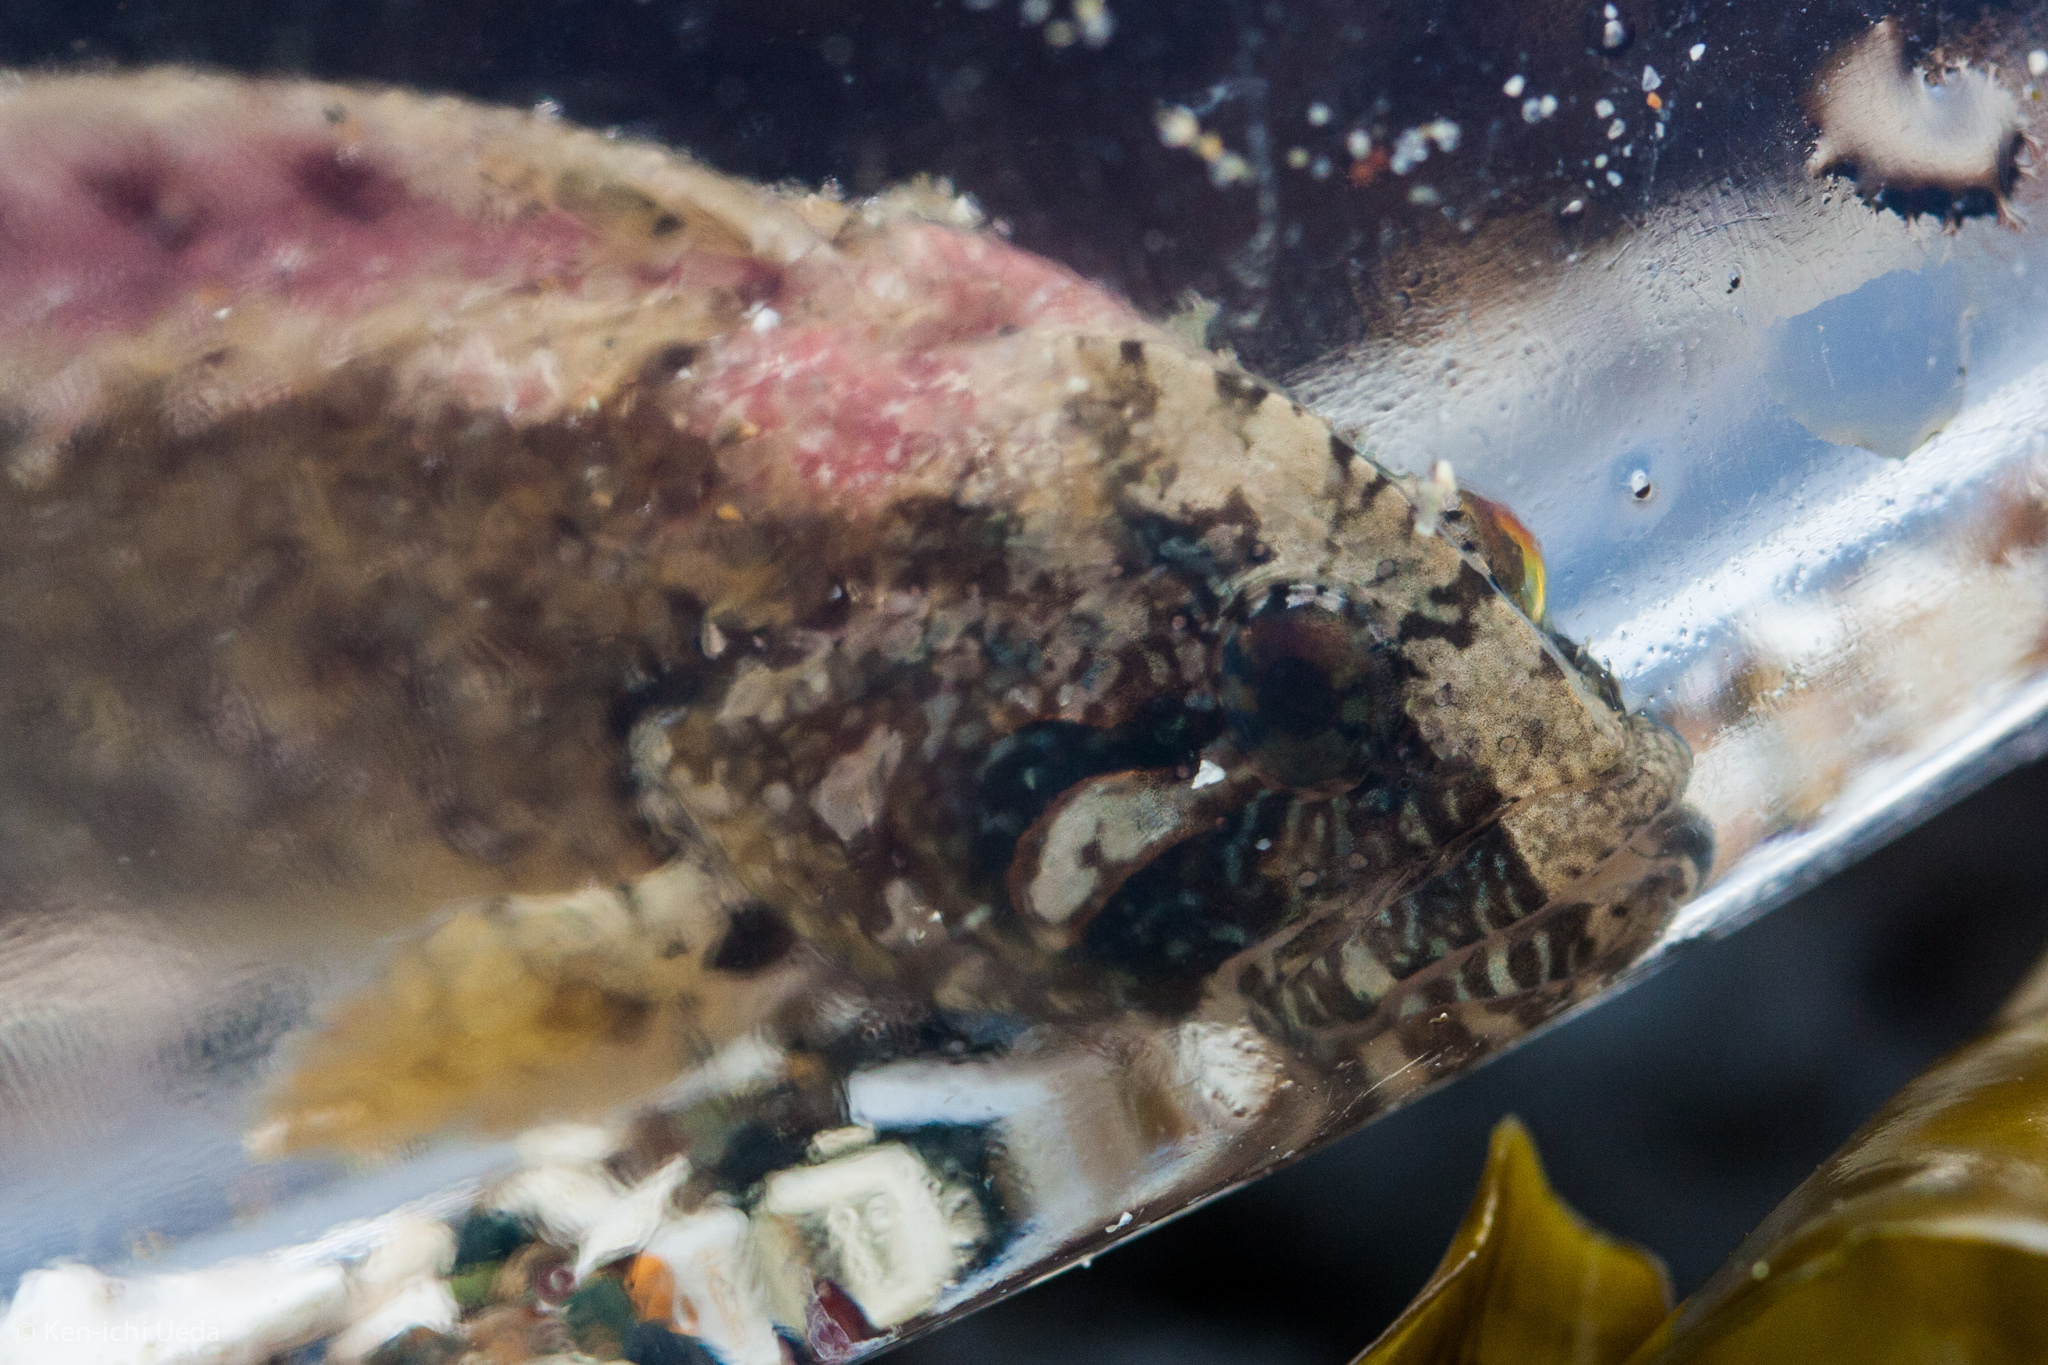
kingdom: Animalia
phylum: Chordata
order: Perciformes
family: Stichaeidae
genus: Anoplarchus
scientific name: Anoplarchus purpurescens
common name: High cockscomb
